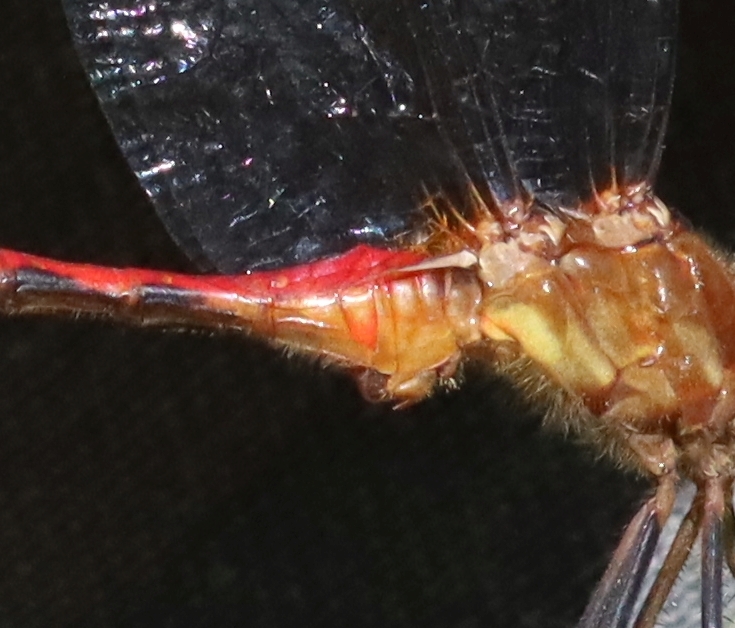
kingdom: Animalia
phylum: Arthropoda
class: Insecta
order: Odonata
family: Libellulidae
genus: Sympetrum
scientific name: Sympetrum rubicundulum
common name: Ruby meadowhawk
